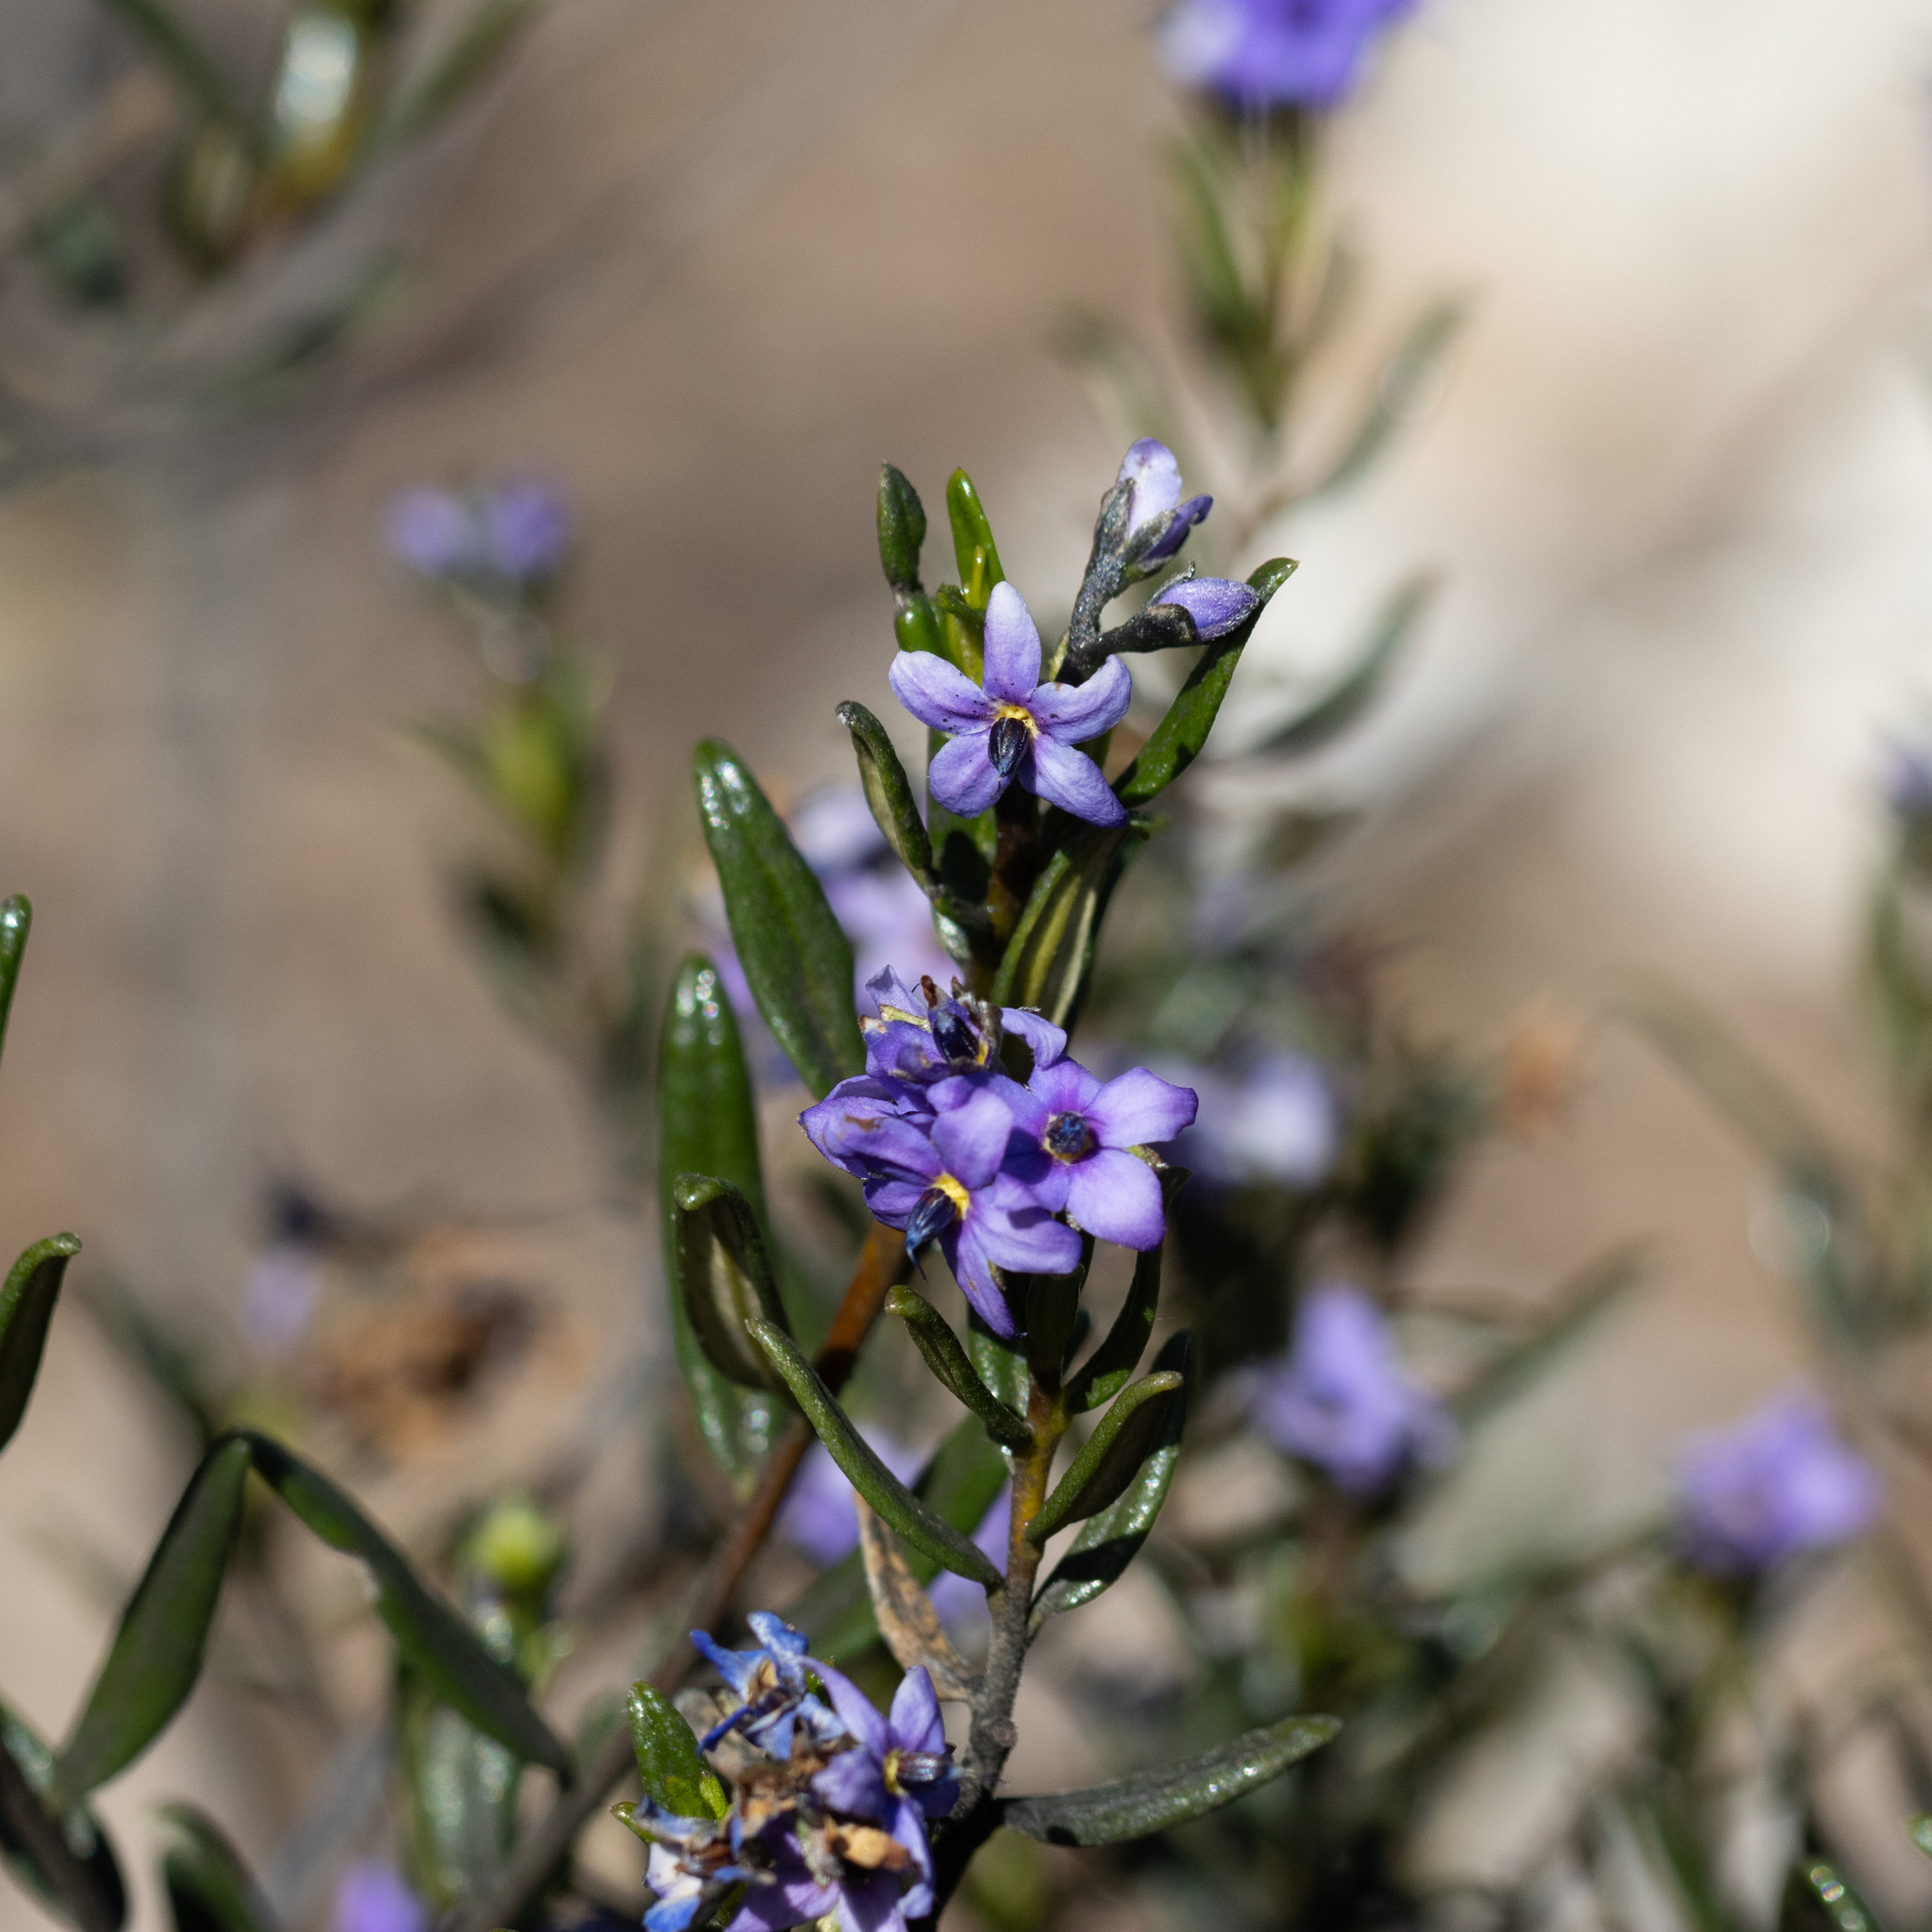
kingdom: Plantae
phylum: Tracheophyta
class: Magnoliopsida
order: Boraginales
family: Ehretiaceae
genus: Halgania
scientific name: Halgania andromedifolia
